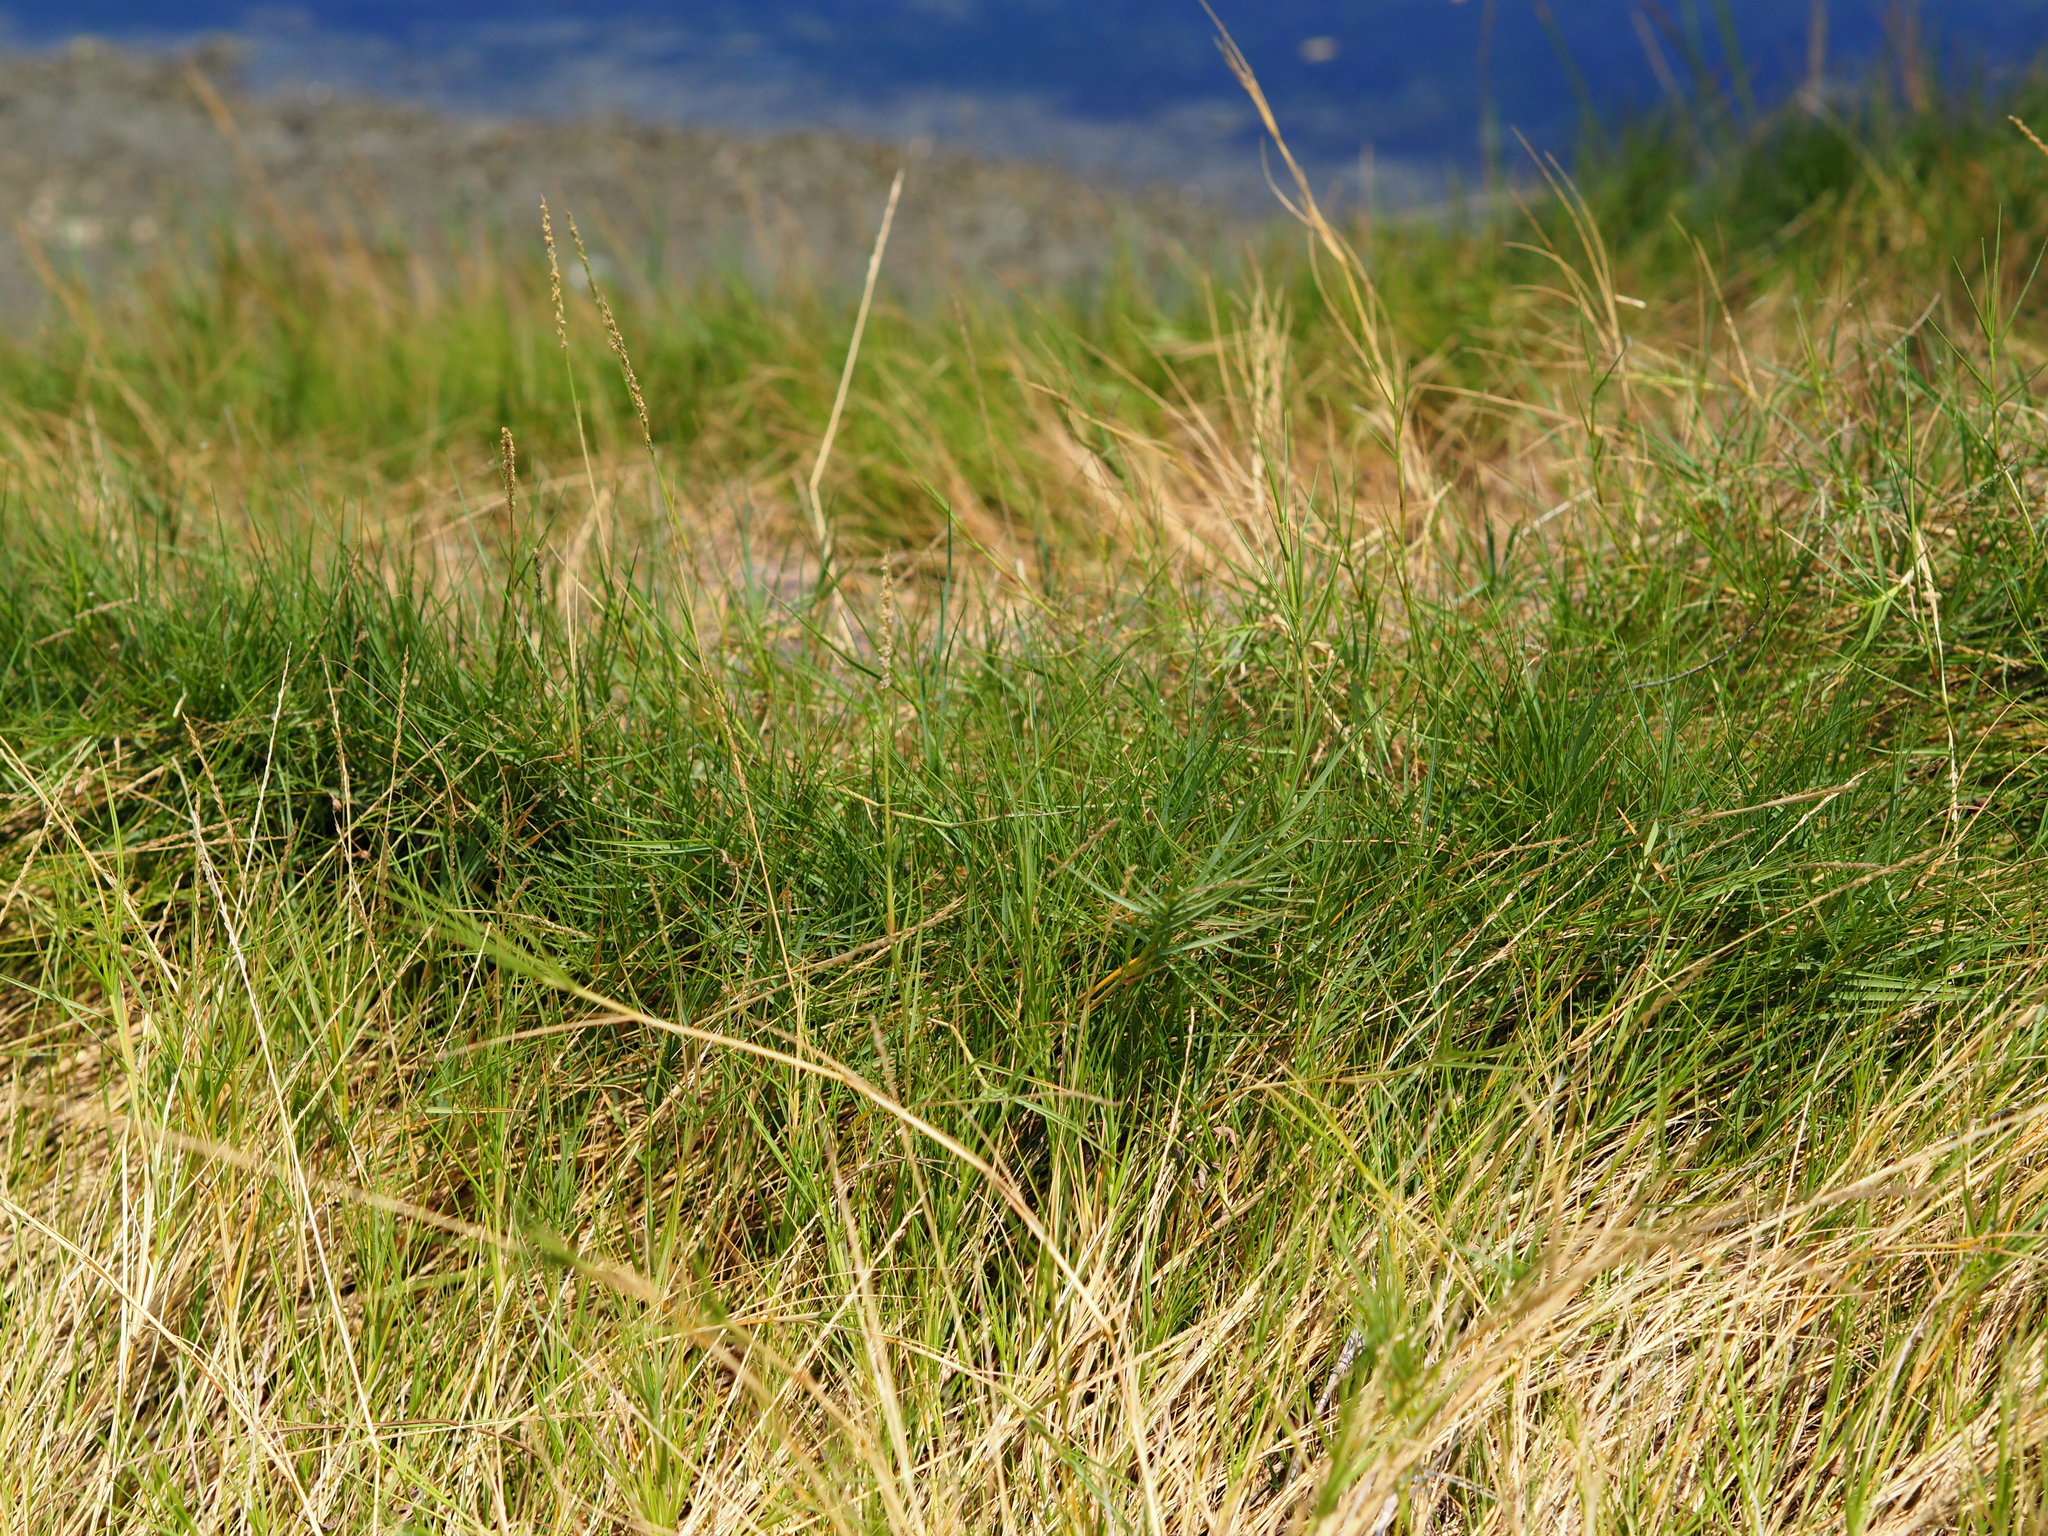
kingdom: Plantae
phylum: Tracheophyta
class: Liliopsida
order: Poales
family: Poaceae
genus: Sporobolus
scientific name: Sporobolus virginicus
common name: Beach dropseed
